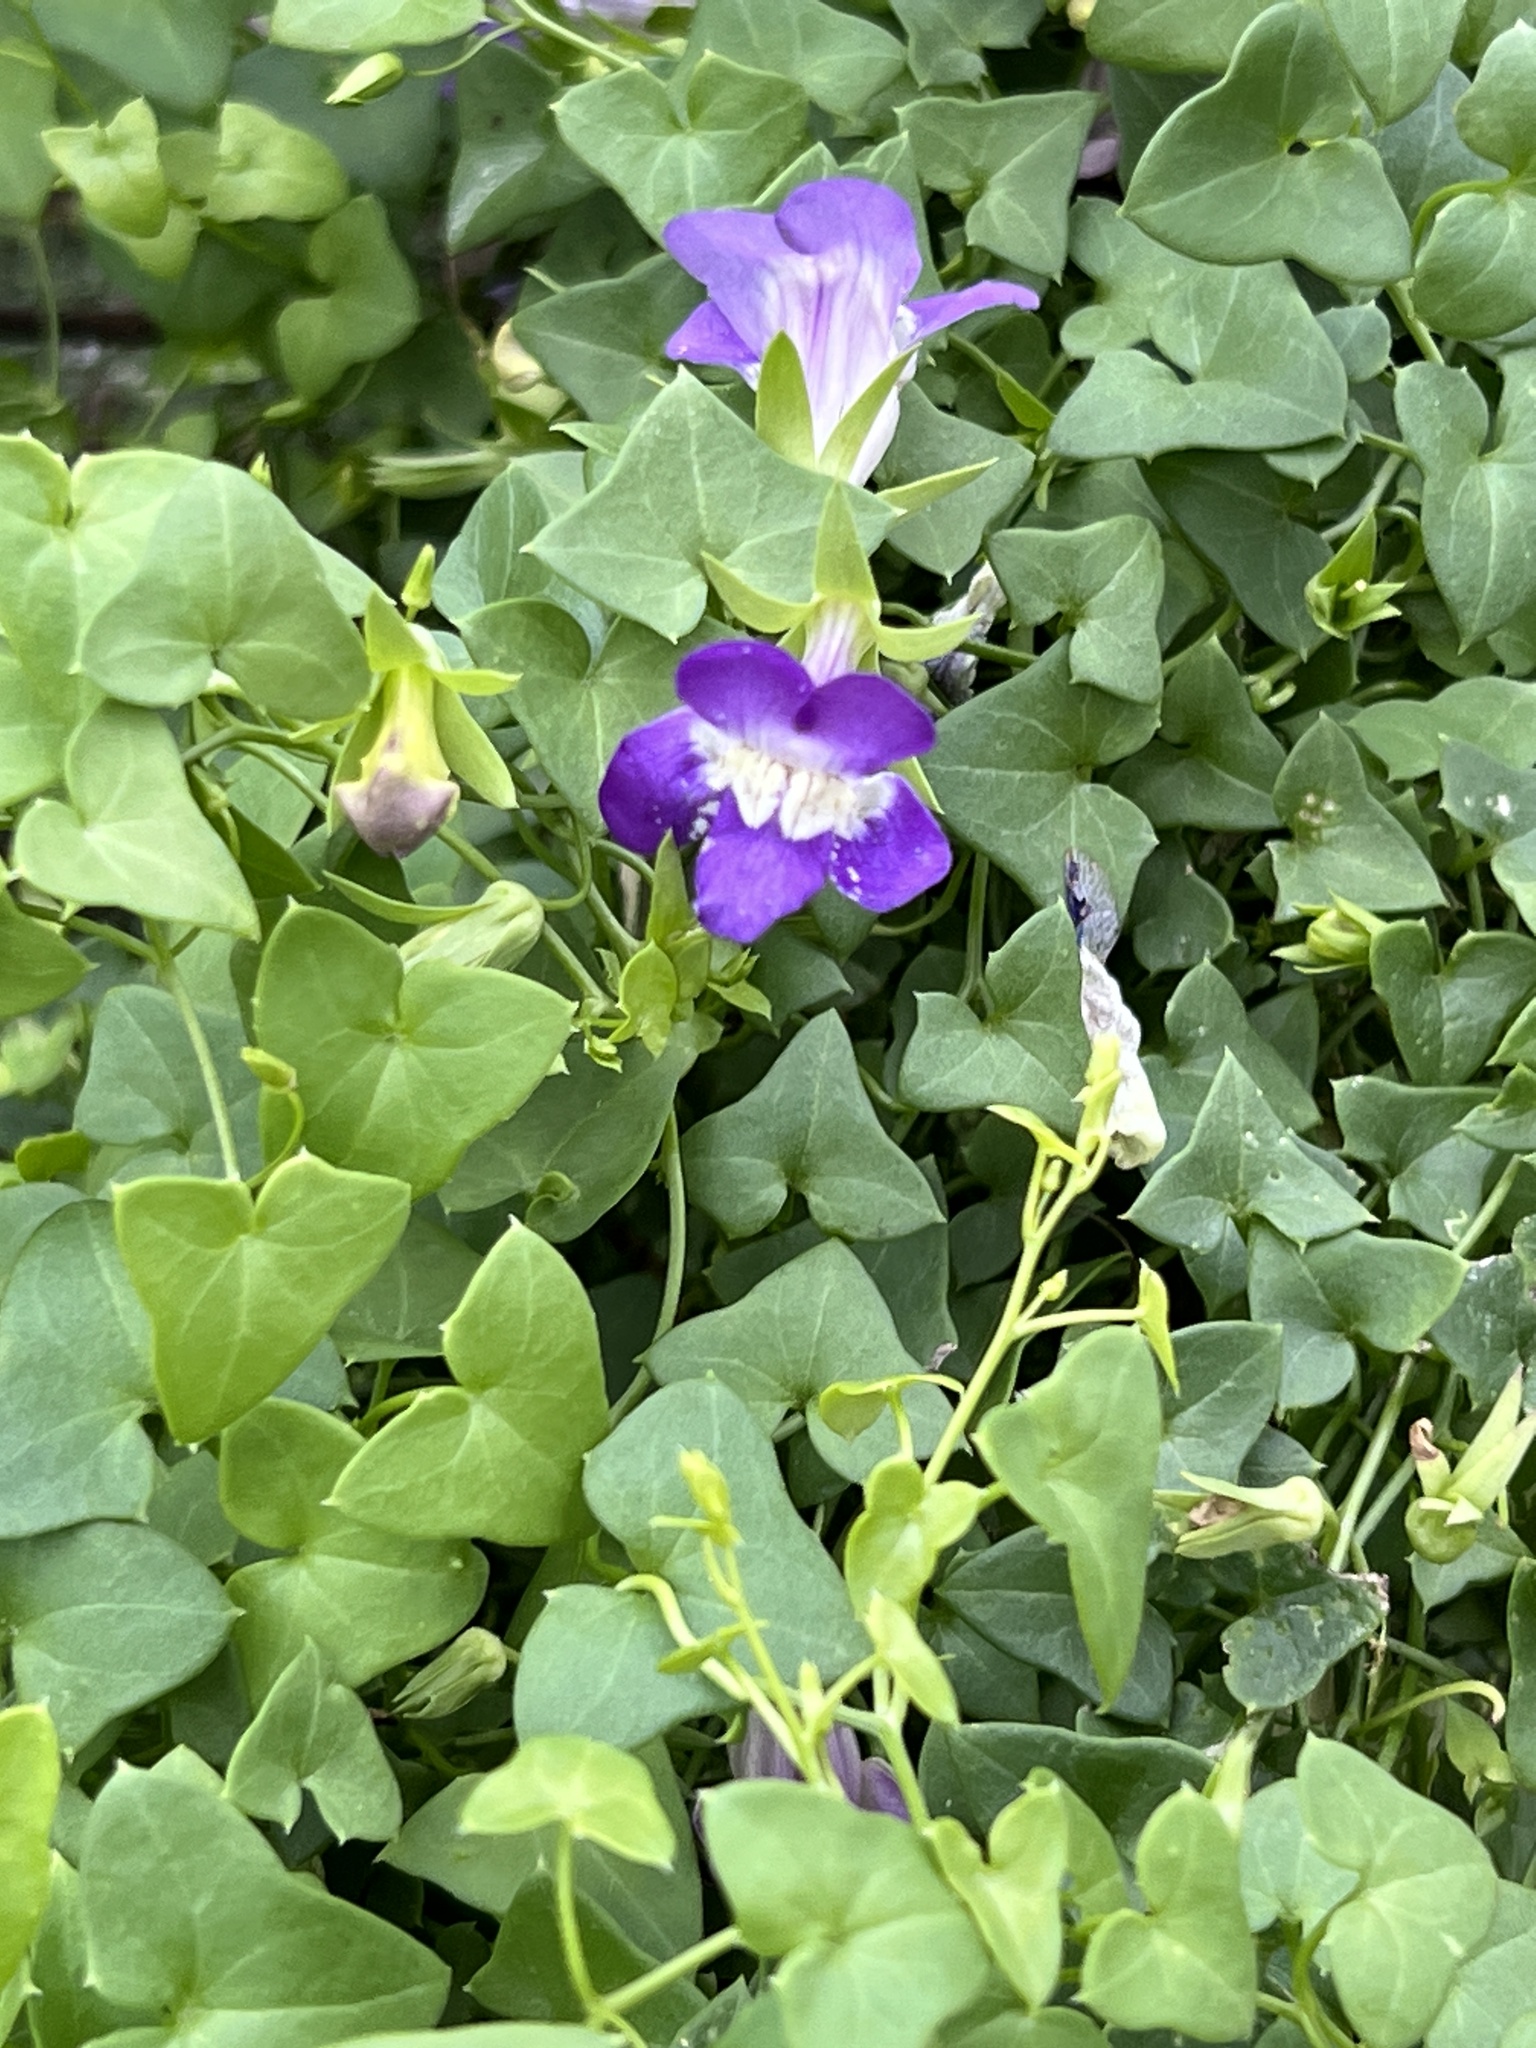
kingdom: Plantae
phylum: Tracheophyta
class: Magnoliopsida
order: Lamiales
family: Plantaginaceae
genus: Maurandella
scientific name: Maurandella antirrhiniflora
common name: Violet twining-snapdragon
